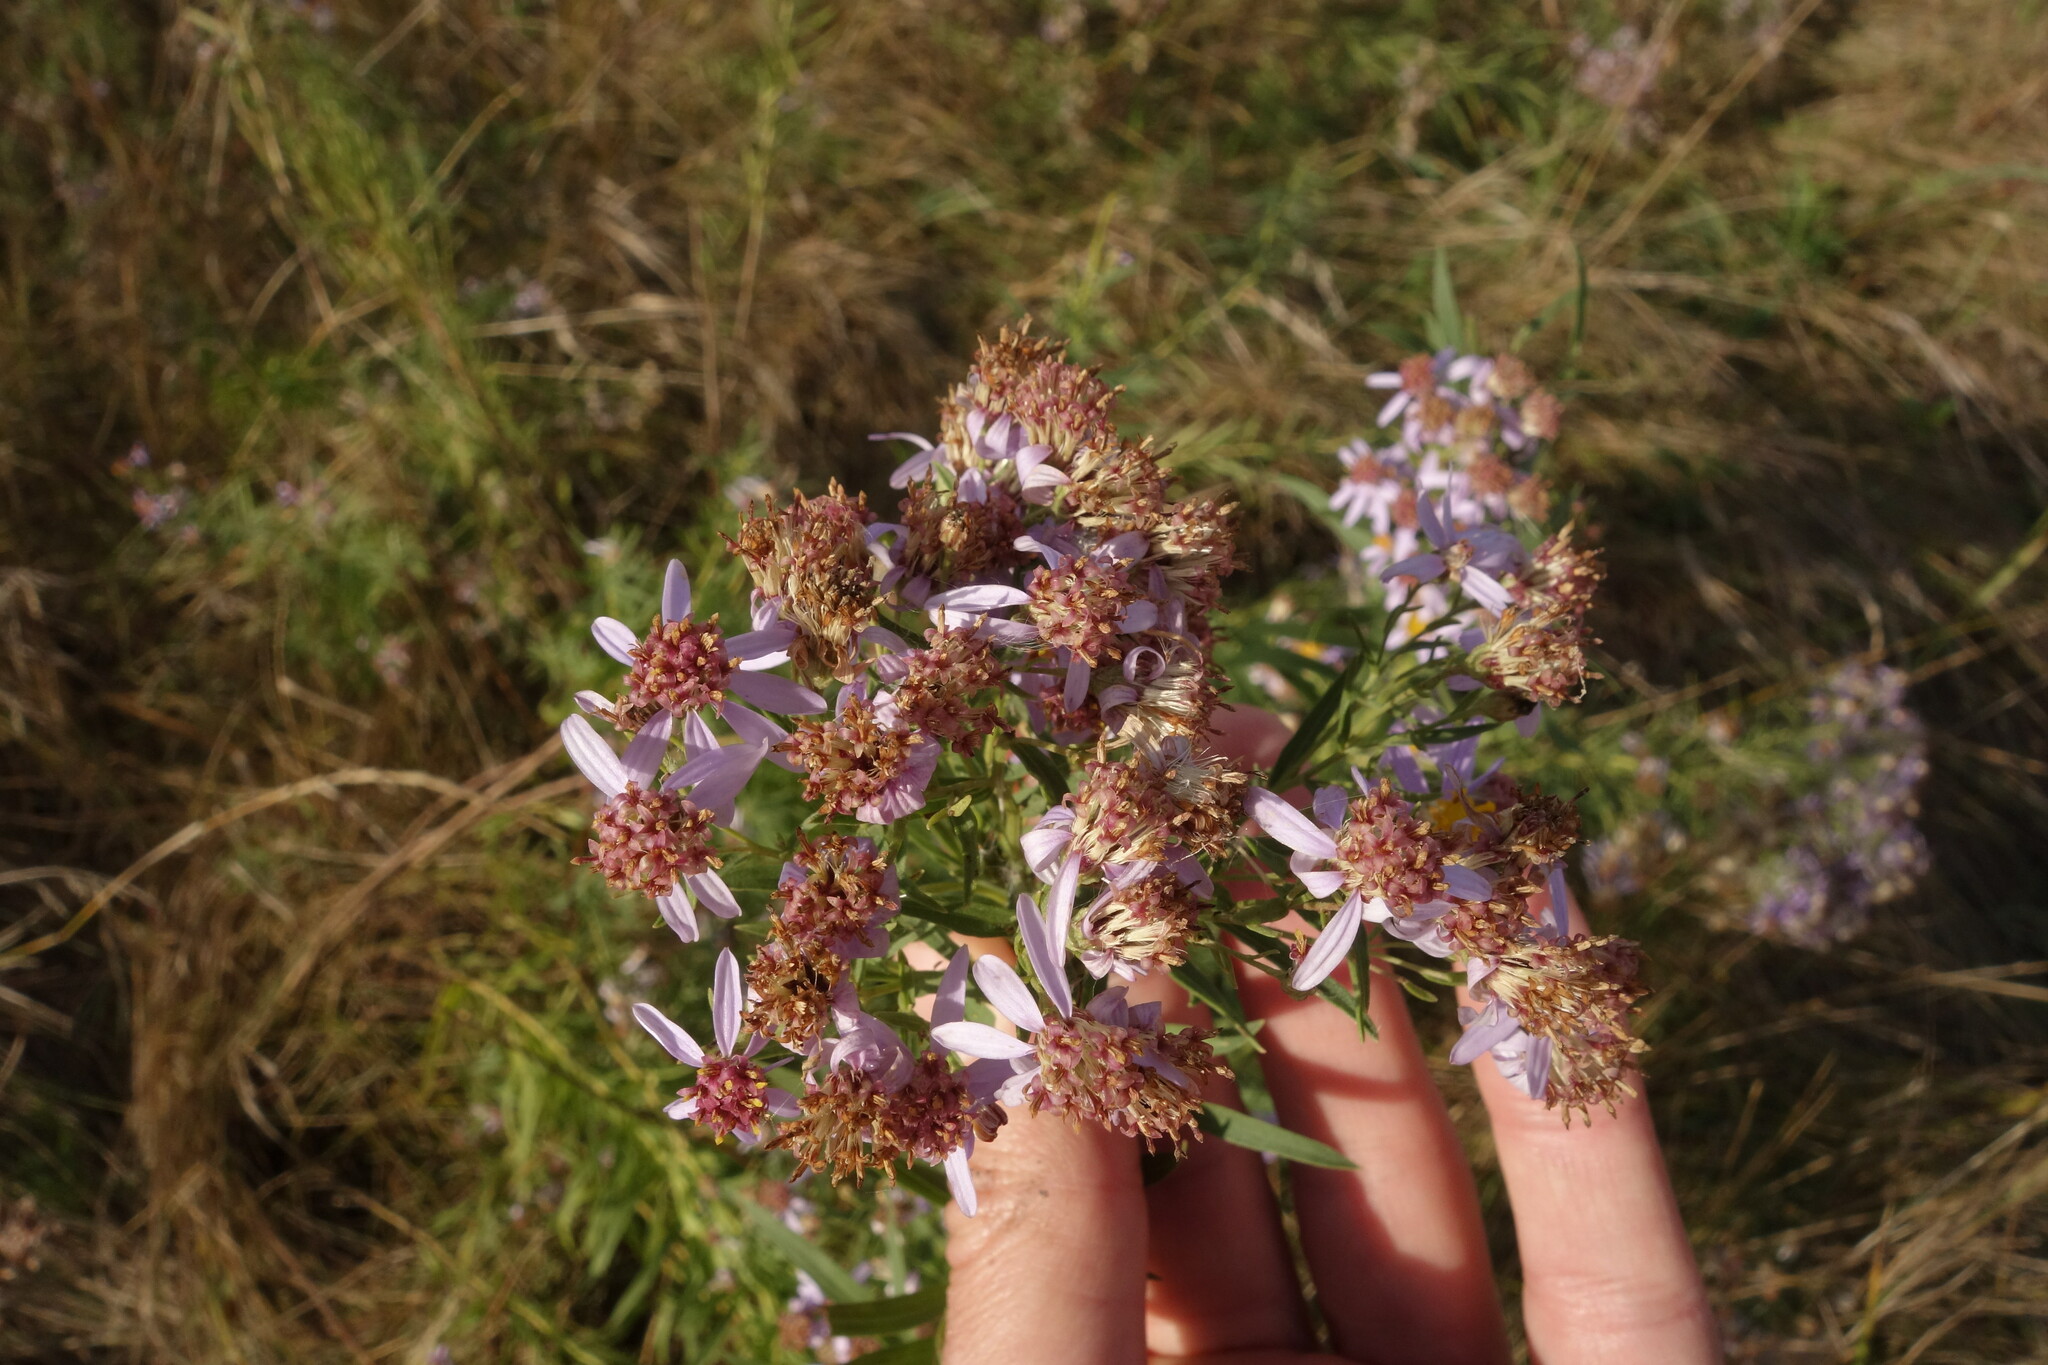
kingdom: Plantae
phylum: Tracheophyta
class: Magnoliopsida
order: Asterales
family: Asteraceae
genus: Galatella
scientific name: Galatella sedifolia
